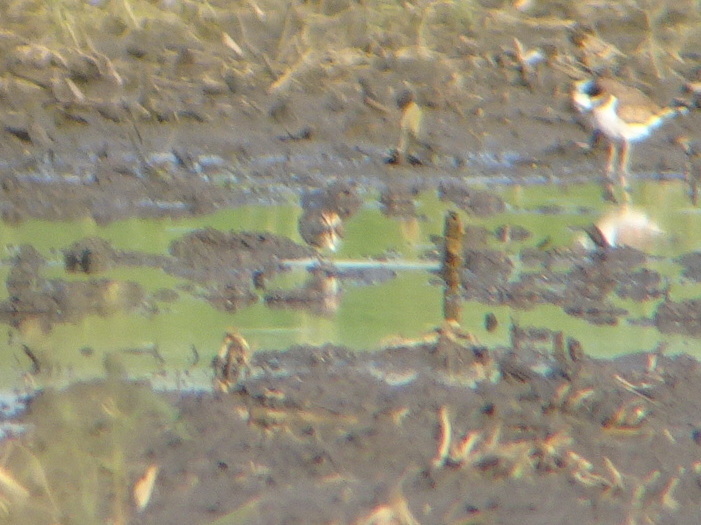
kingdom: Animalia
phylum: Chordata
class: Aves
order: Charadriiformes
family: Scolopacidae
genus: Calidris
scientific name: Calidris melanotos
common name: Pectoral sandpiper
